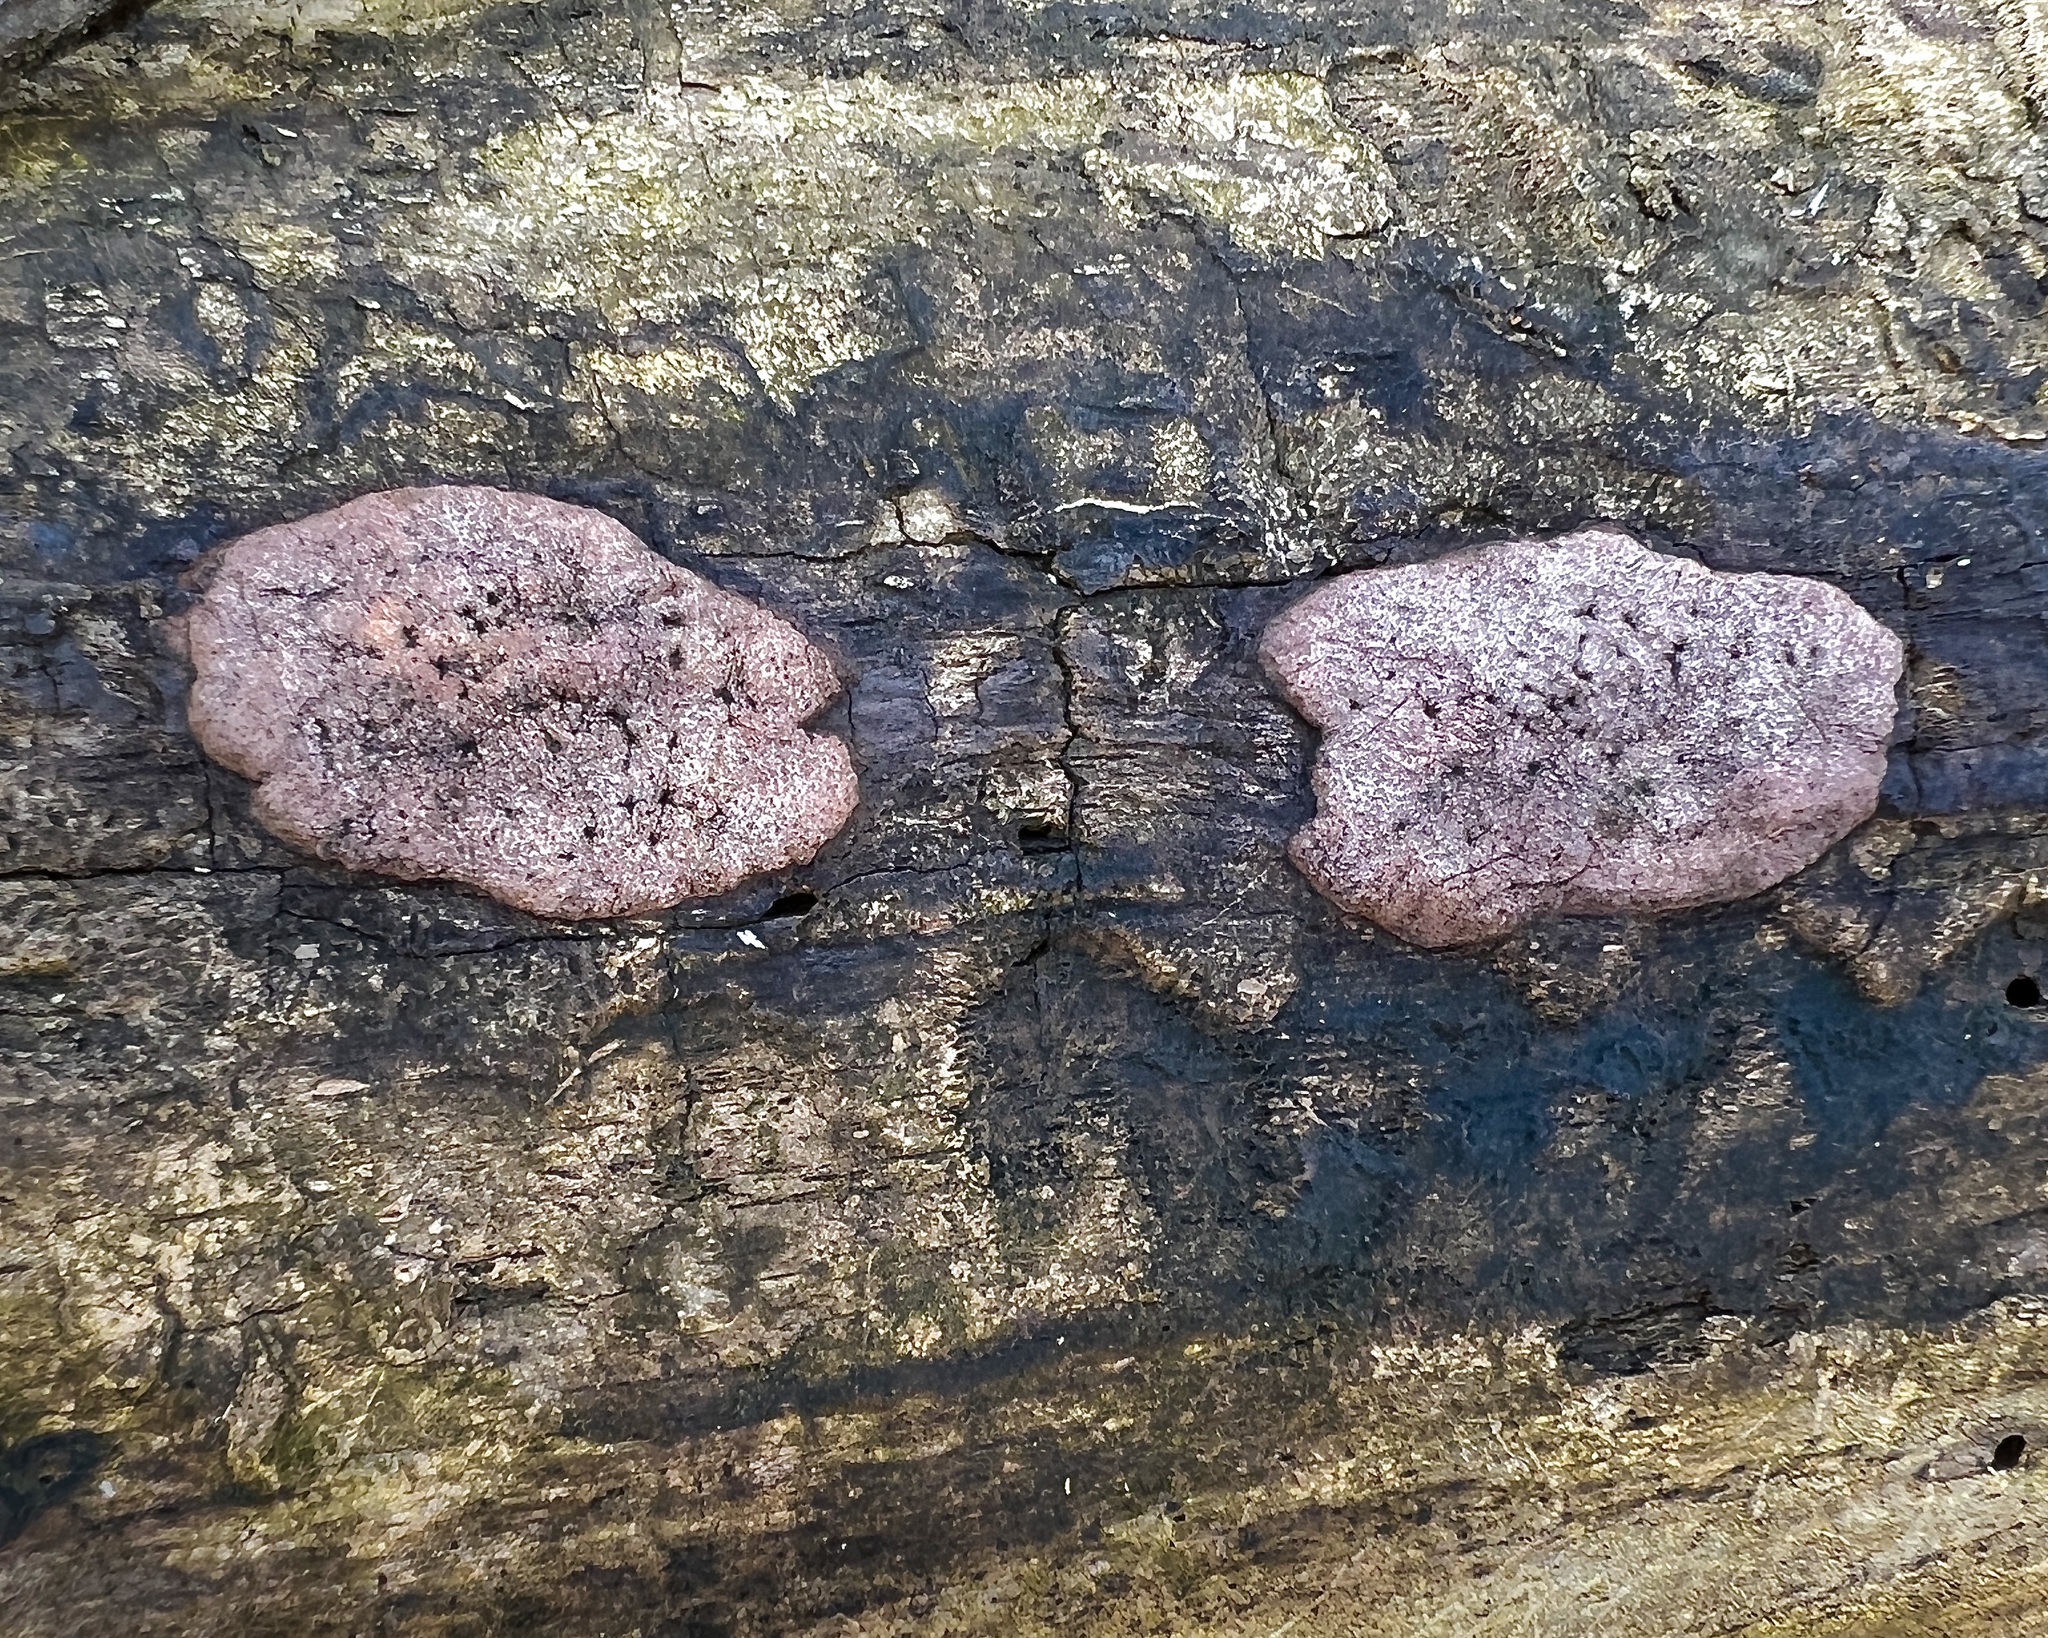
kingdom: Fungi
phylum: Ascomycota
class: Sordariomycetes
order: Xylariales
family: Hypoxylaceae
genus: Hypoxylon
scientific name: Hypoxylon rubiginosum
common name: Rusty woodwart
